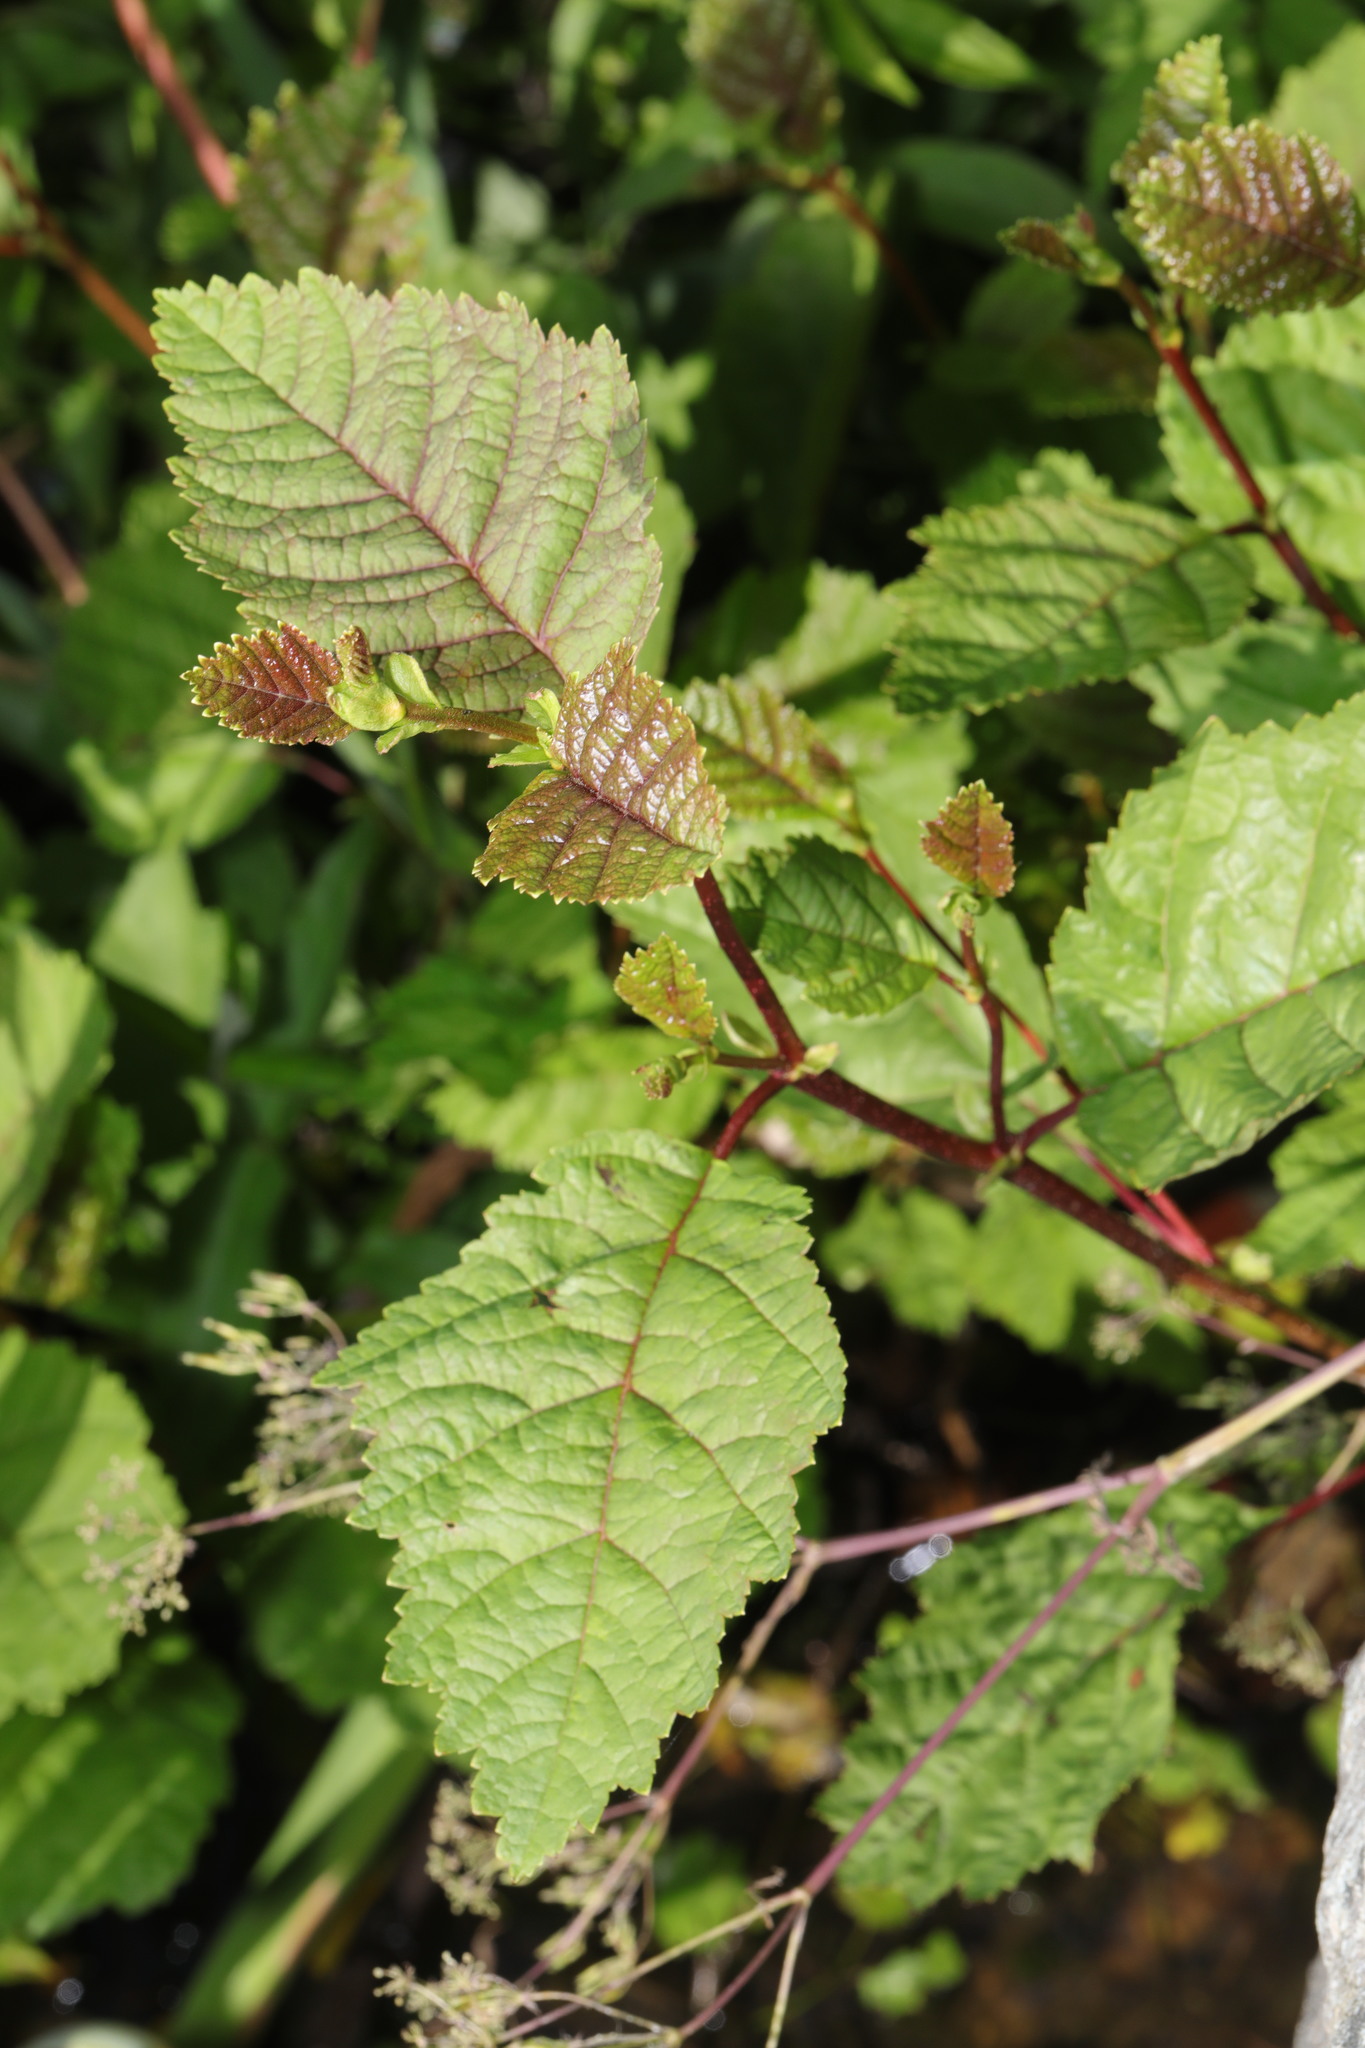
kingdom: Plantae
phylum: Tracheophyta
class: Magnoliopsida
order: Fagales
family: Betulaceae
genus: Alnus
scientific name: Alnus incana
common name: Grey alder
